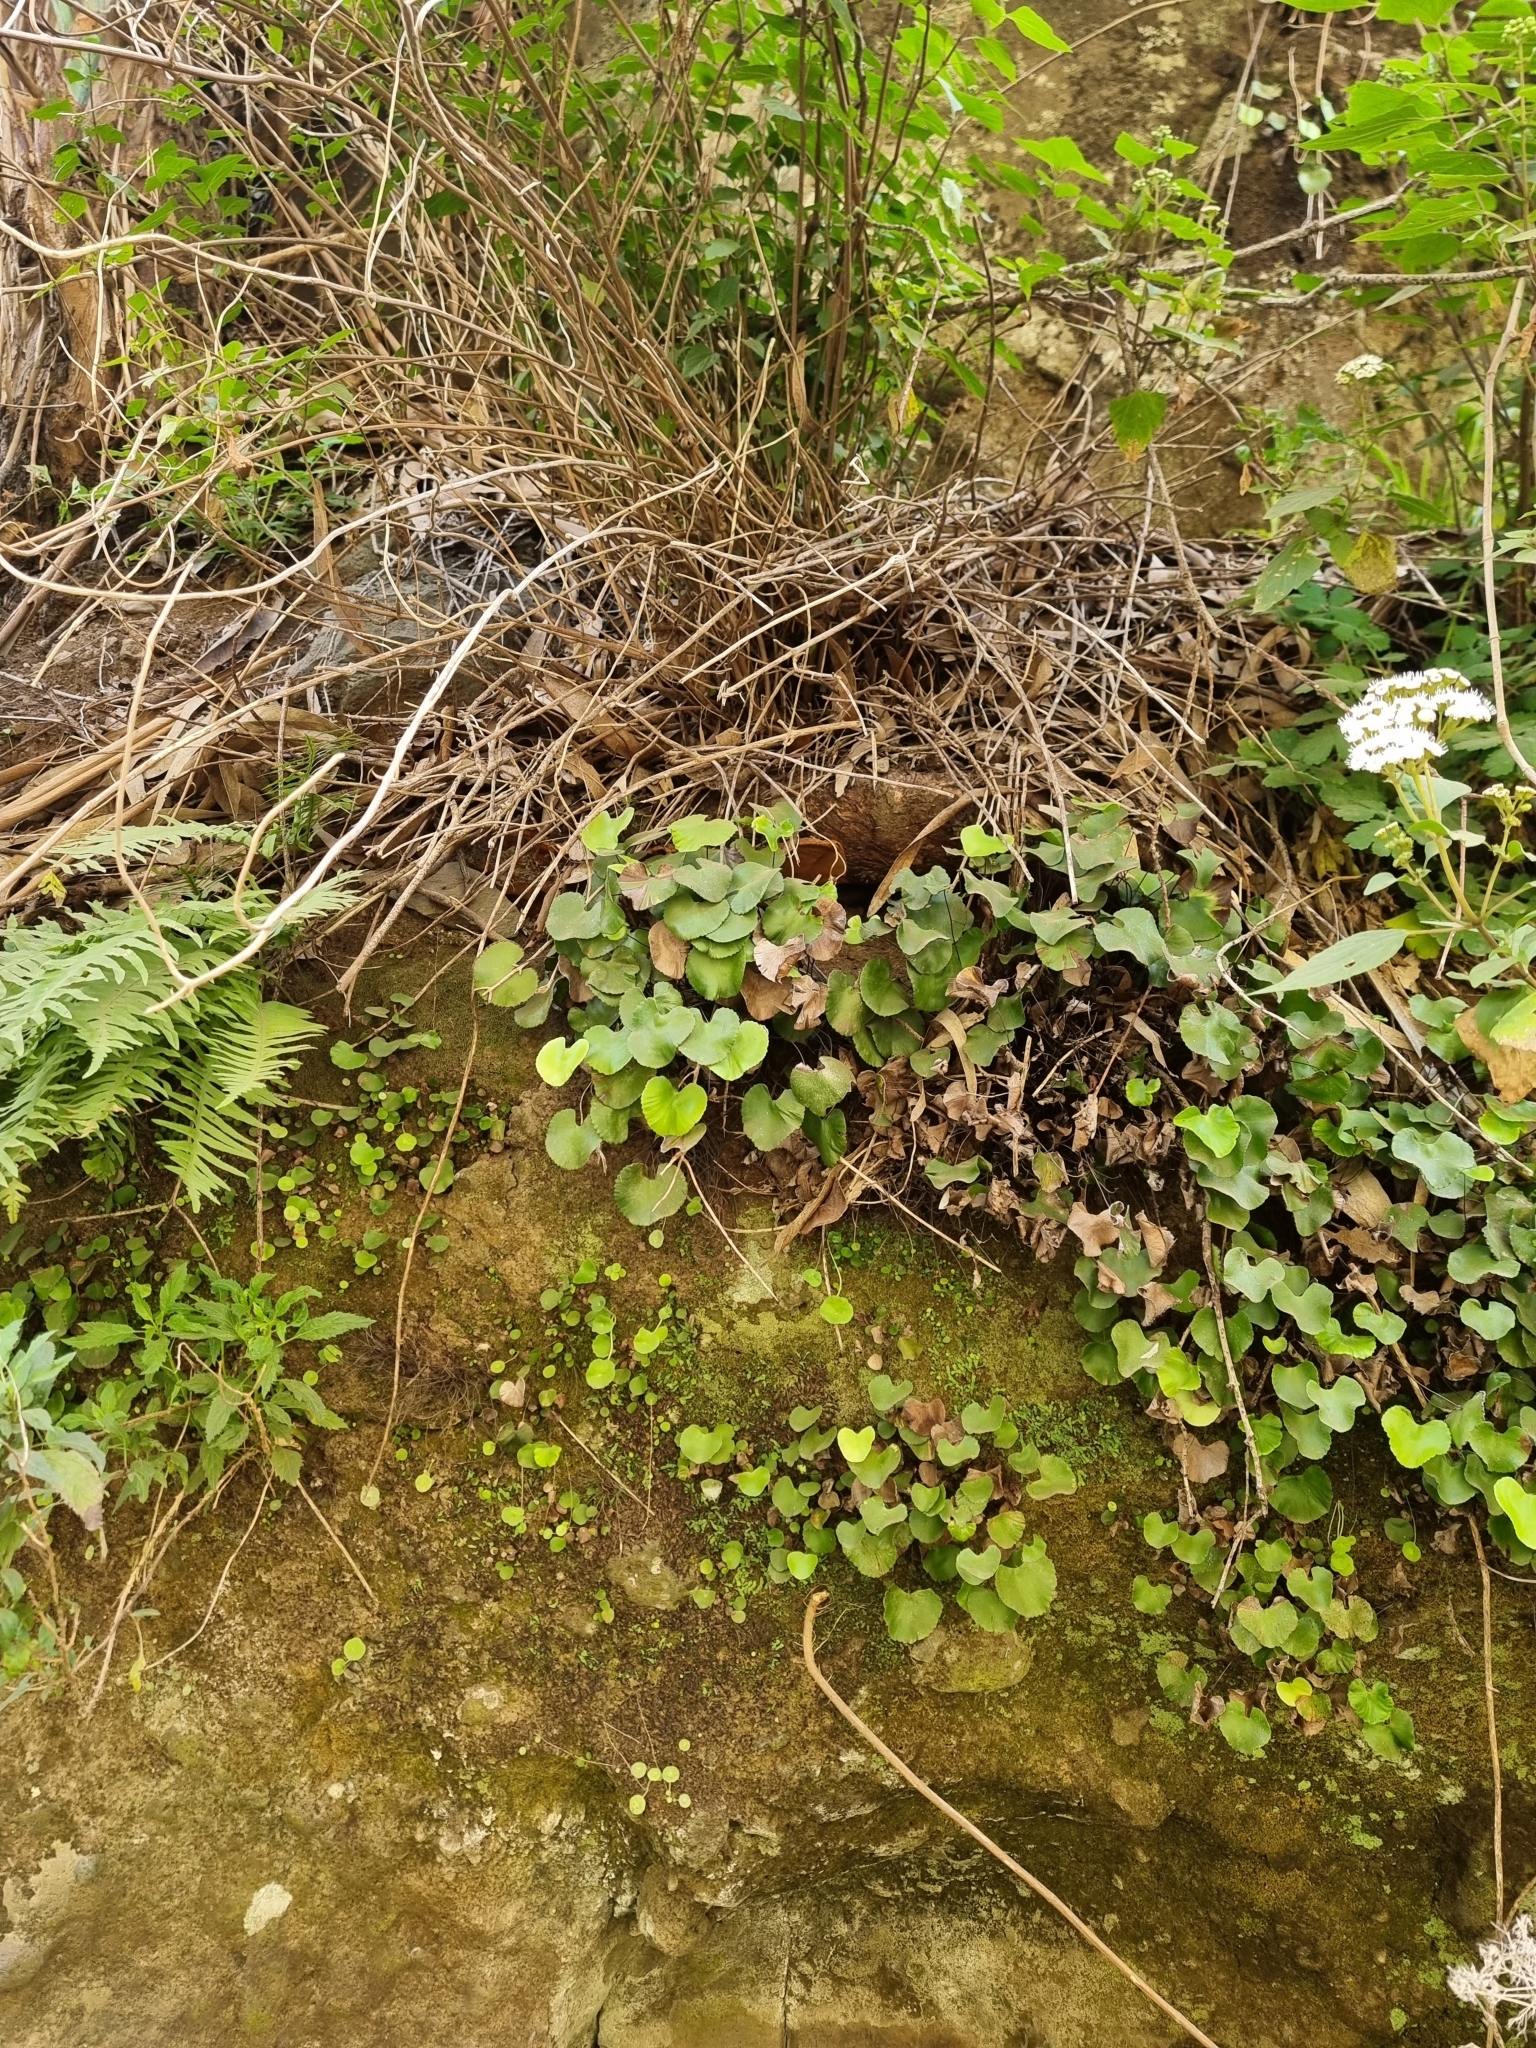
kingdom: Plantae
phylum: Tracheophyta
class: Polypodiopsida
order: Polypodiales
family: Pteridaceae
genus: Adiantum
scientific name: Adiantum reniforme
